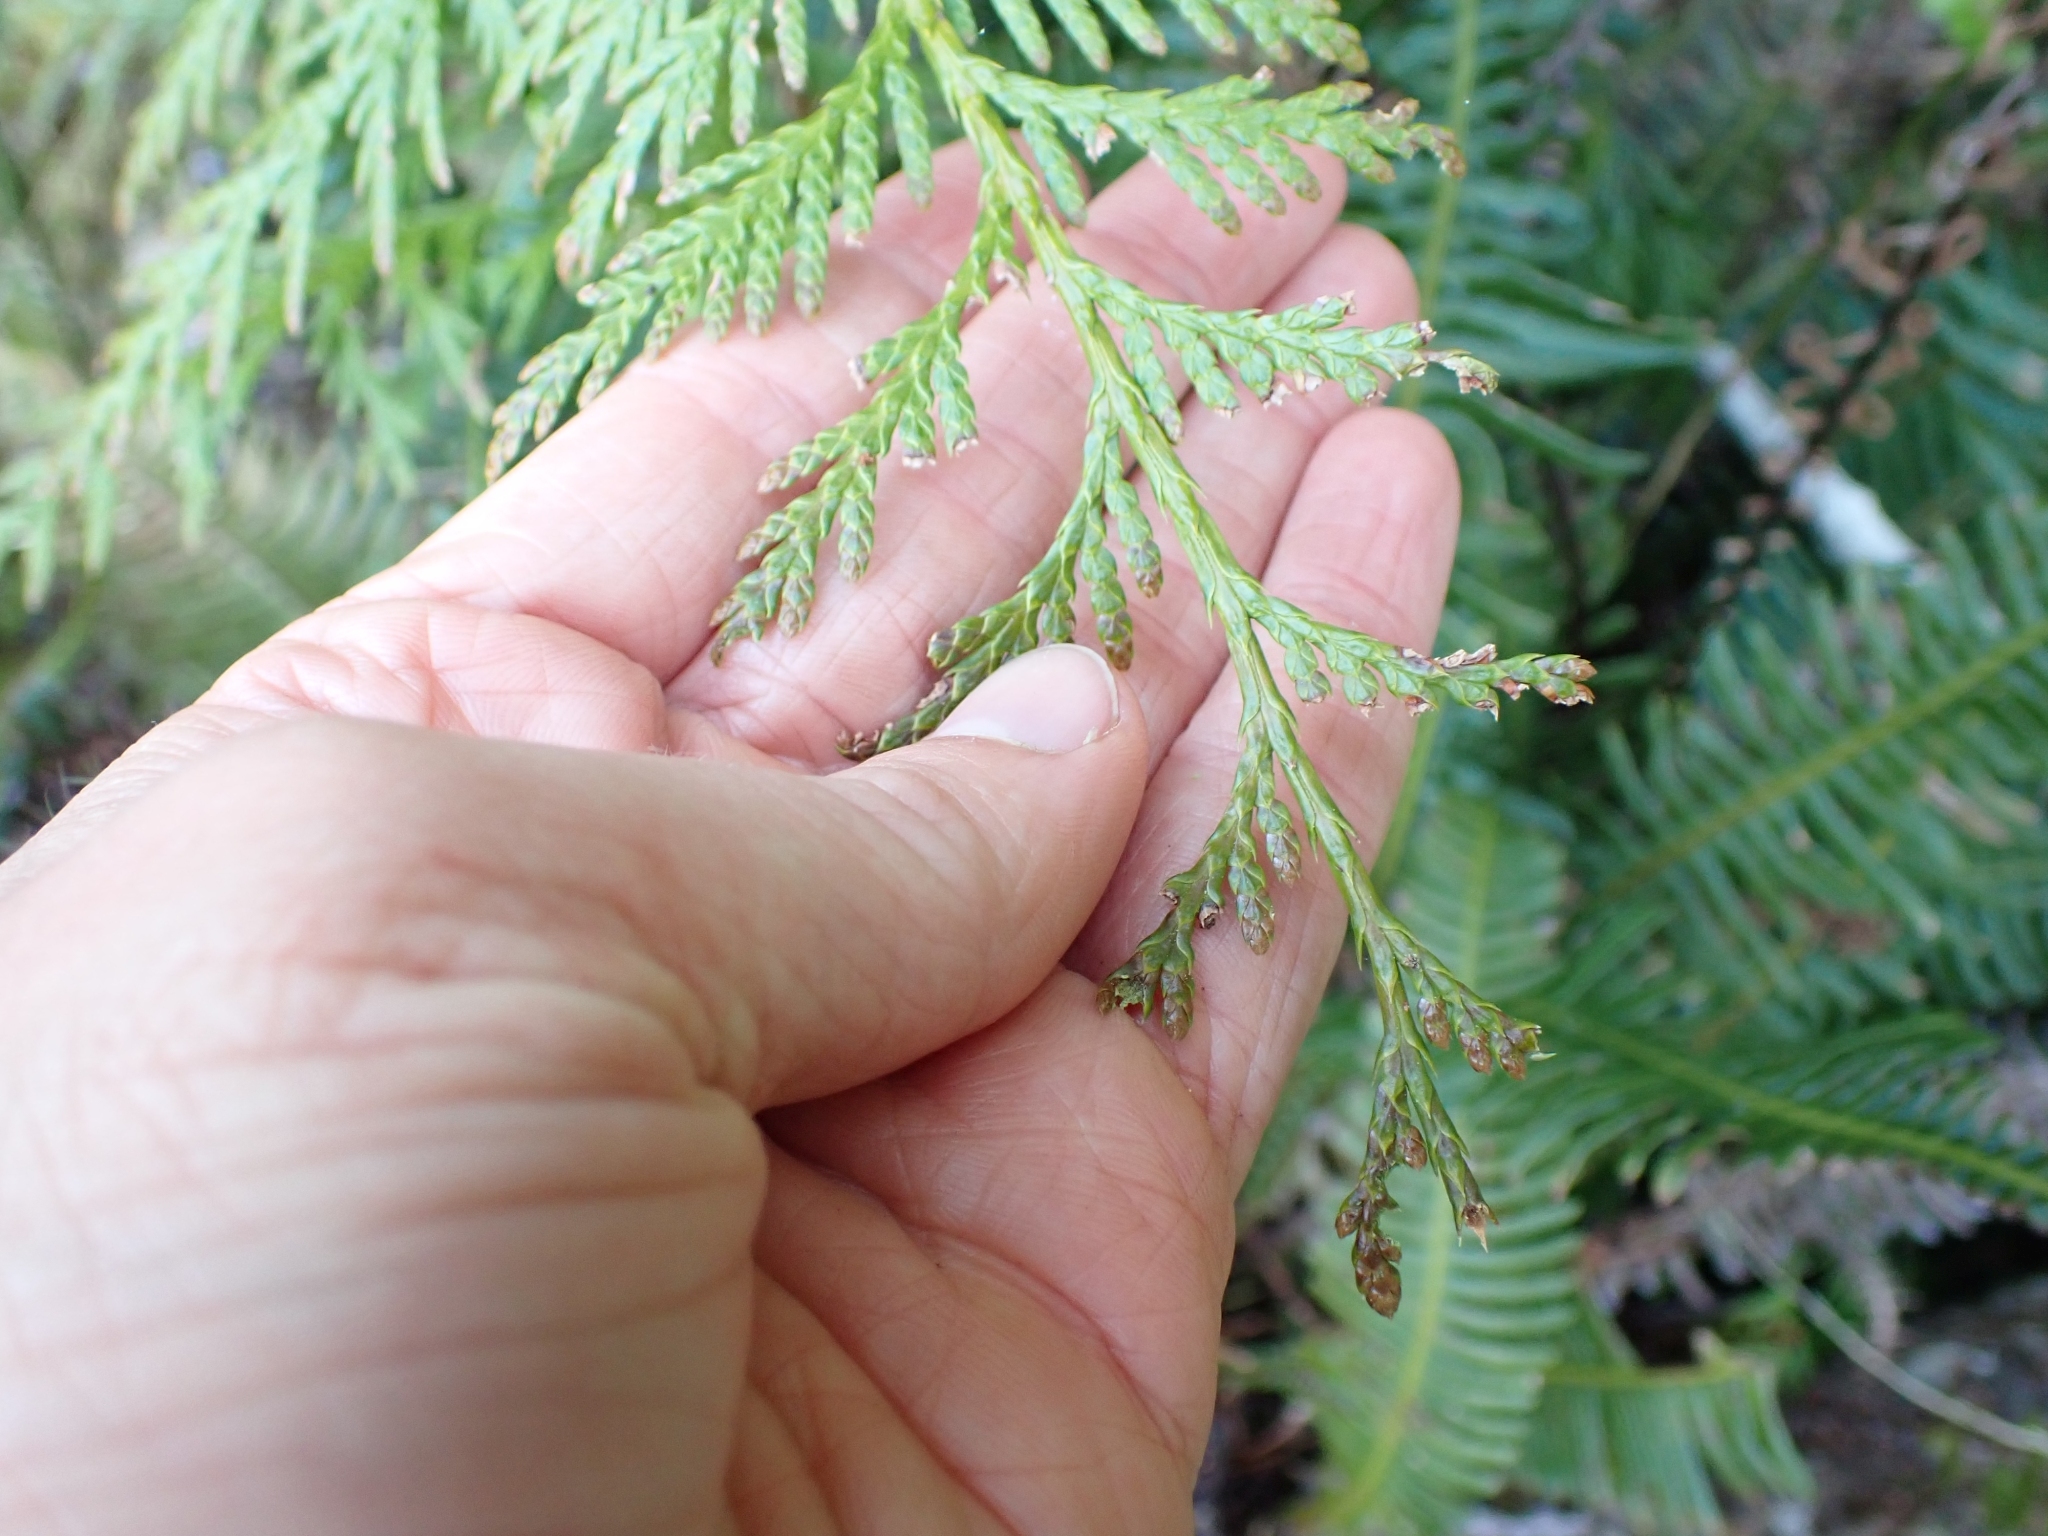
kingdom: Plantae
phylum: Tracheophyta
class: Pinopsida
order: Pinales
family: Cupressaceae
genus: Thuja
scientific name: Thuja plicata
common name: Western red-cedar
